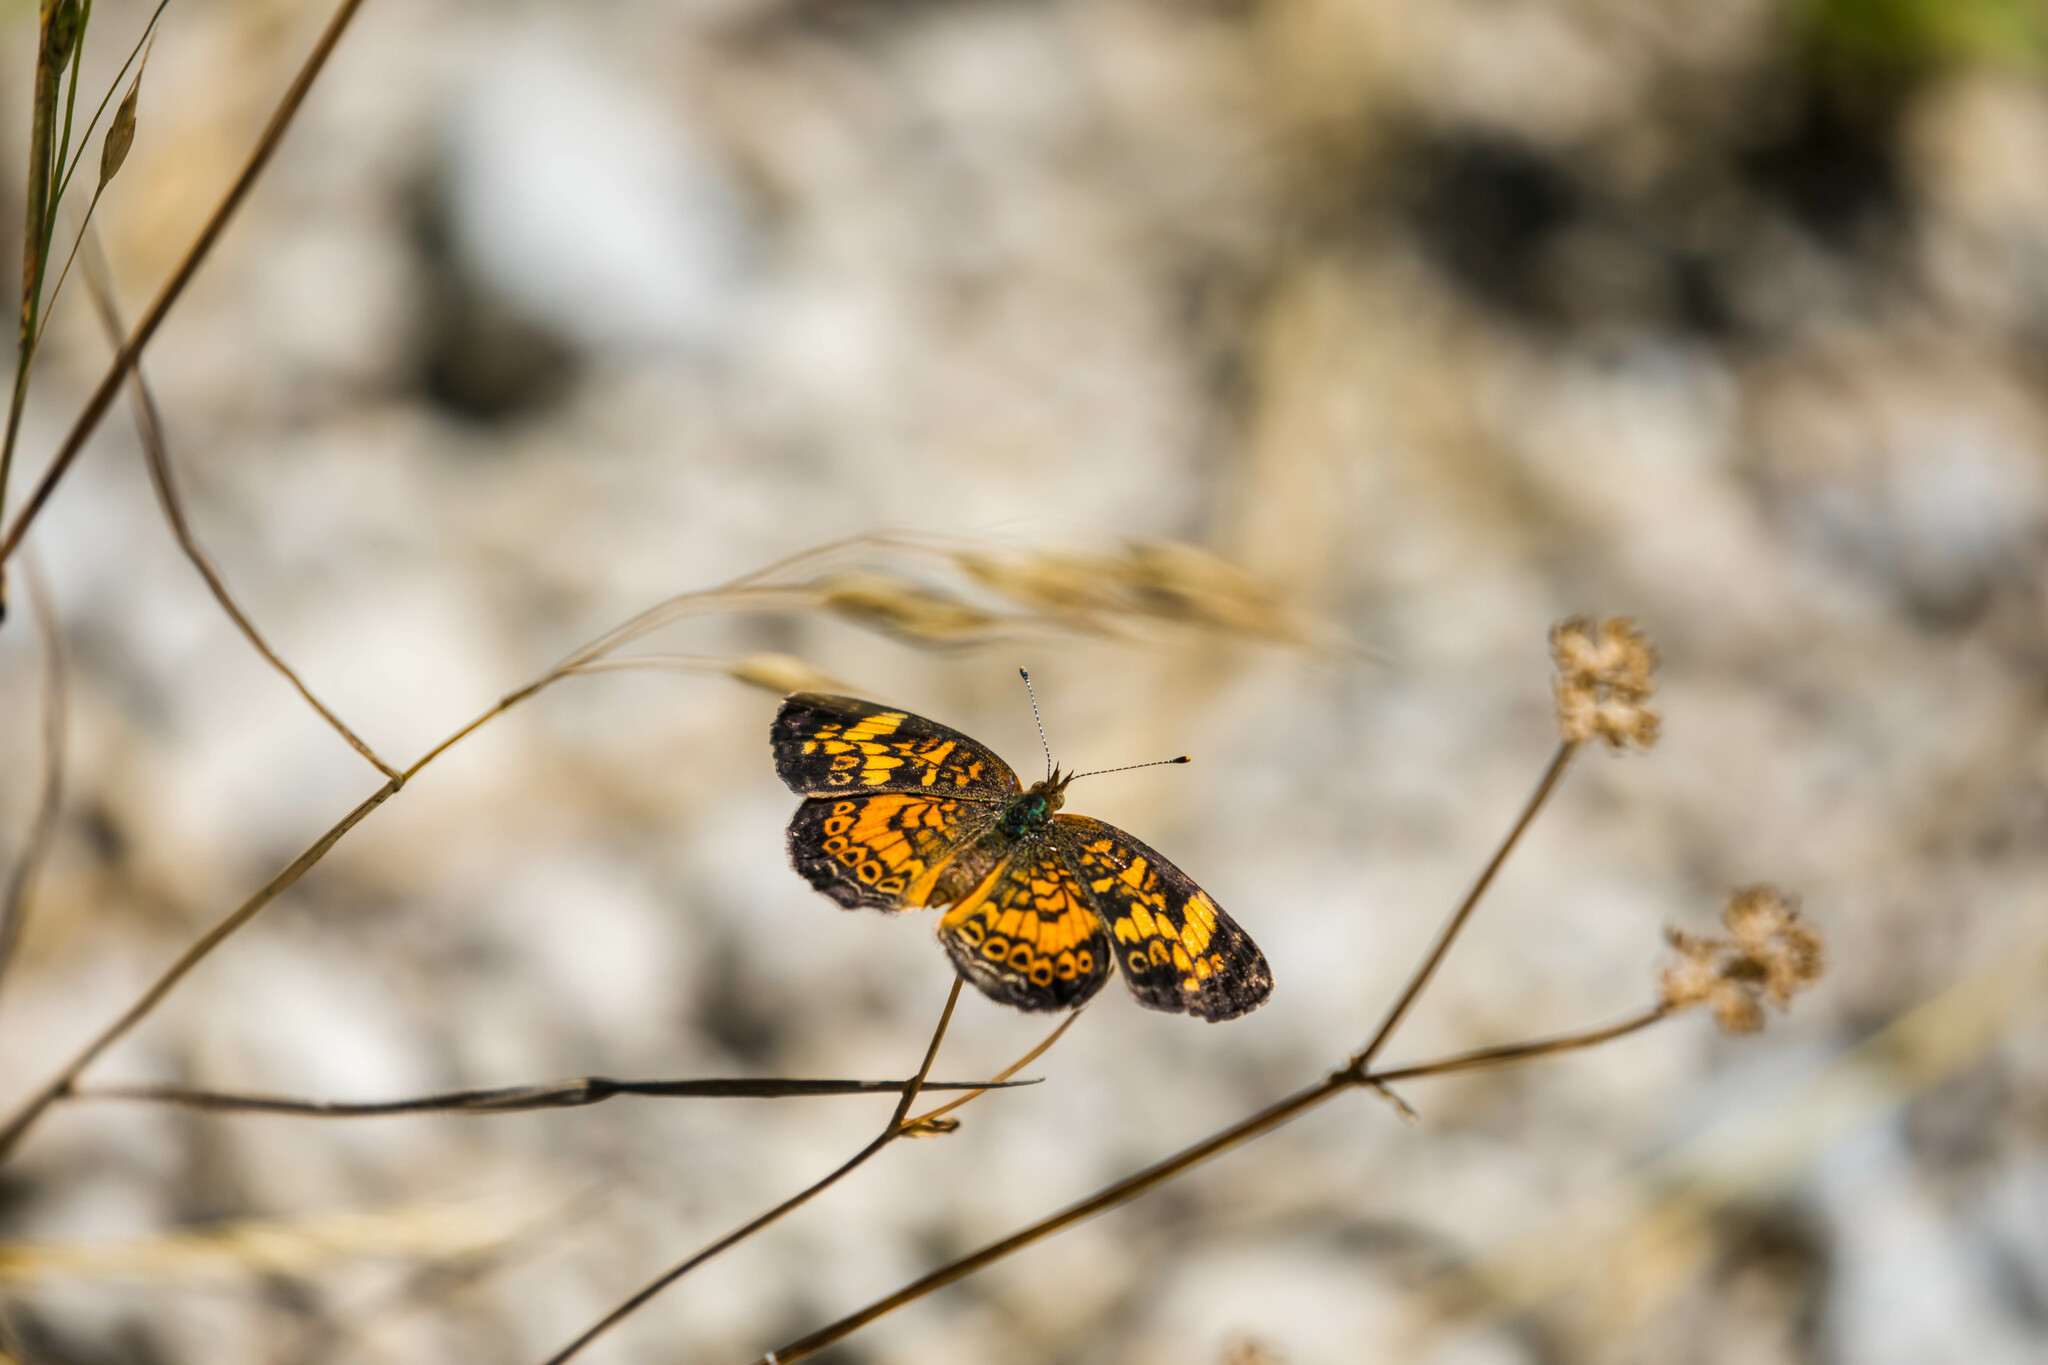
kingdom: Animalia
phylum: Arthropoda
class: Insecta
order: Lepidoptera
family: Nymphalidae
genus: Phyciodes
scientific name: Phyciodes tharos
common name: Pearl crescent
